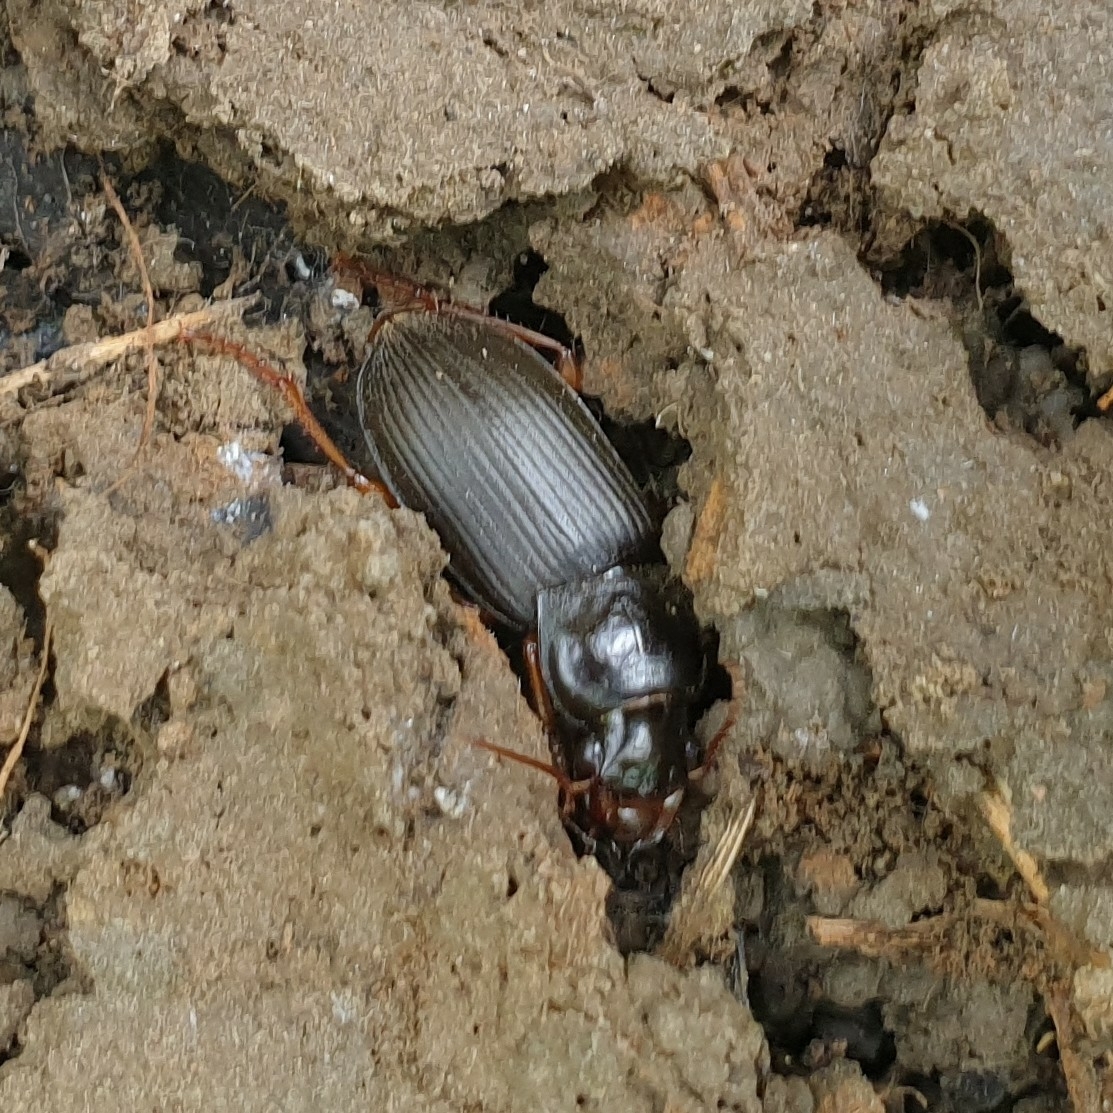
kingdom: Animalia
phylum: Arthropoda
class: Insecta
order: Coleoptera
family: Carabidae
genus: Harpalus
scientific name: Harpalus rufipes
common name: Strawberry harp ground beetle
